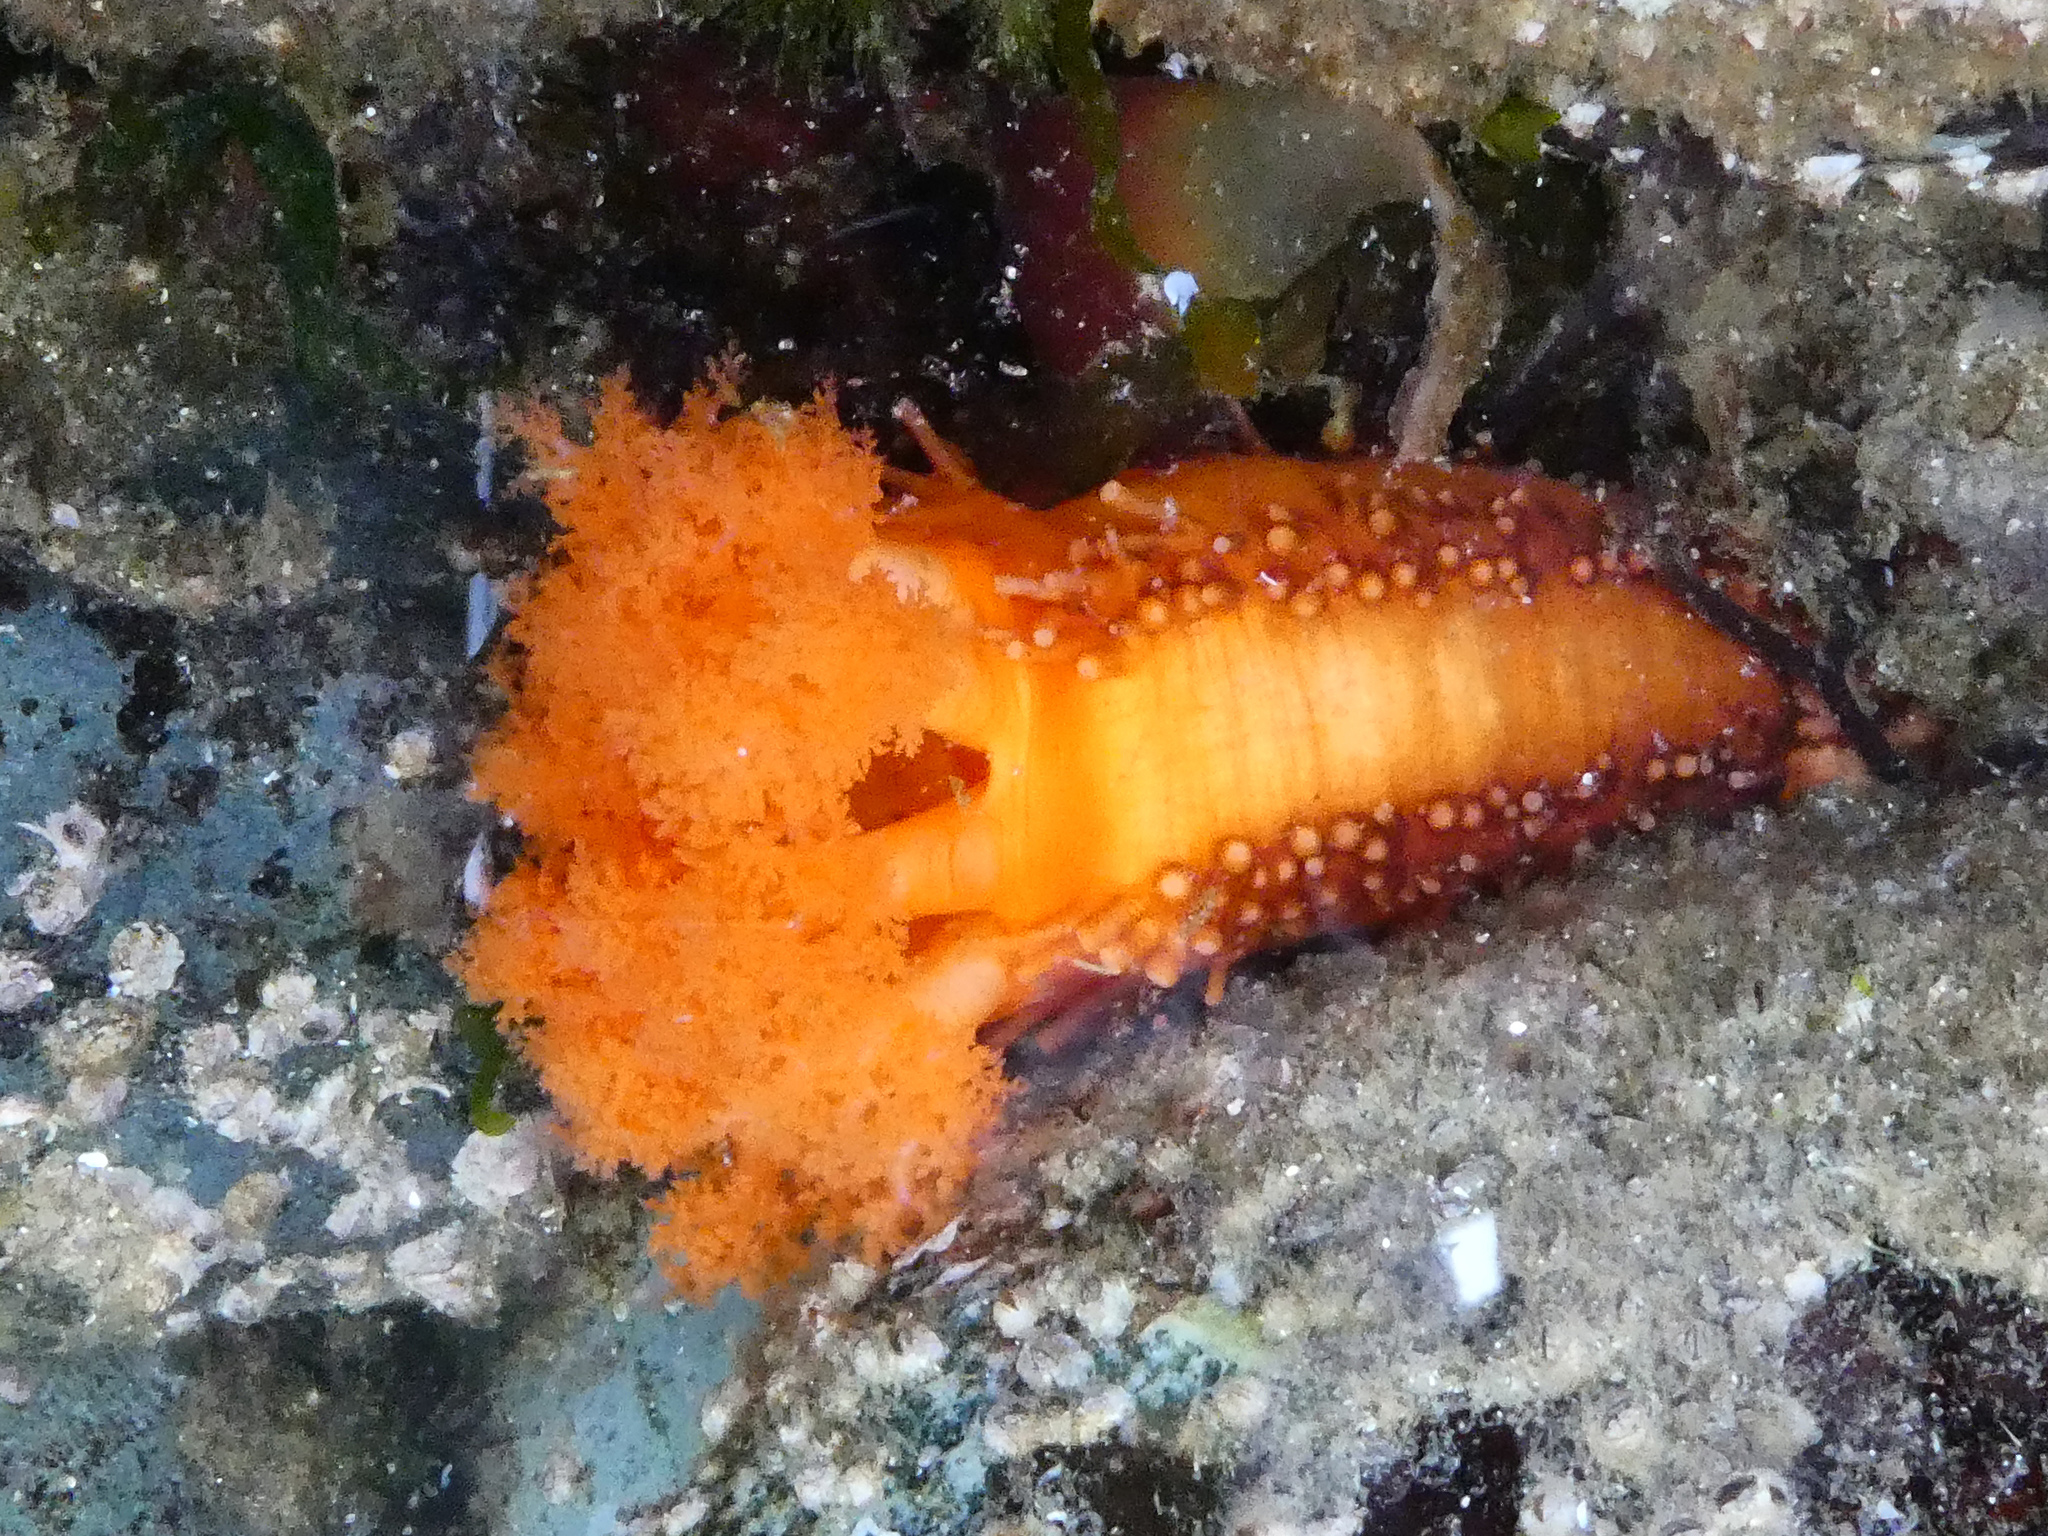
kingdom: Animalia
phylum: Echinodermata
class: Holothuroidea
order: Dendrochirotida
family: Cucumariidae
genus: Cucumaria
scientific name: Cucumaria miniata
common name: Orange sea cucumber
